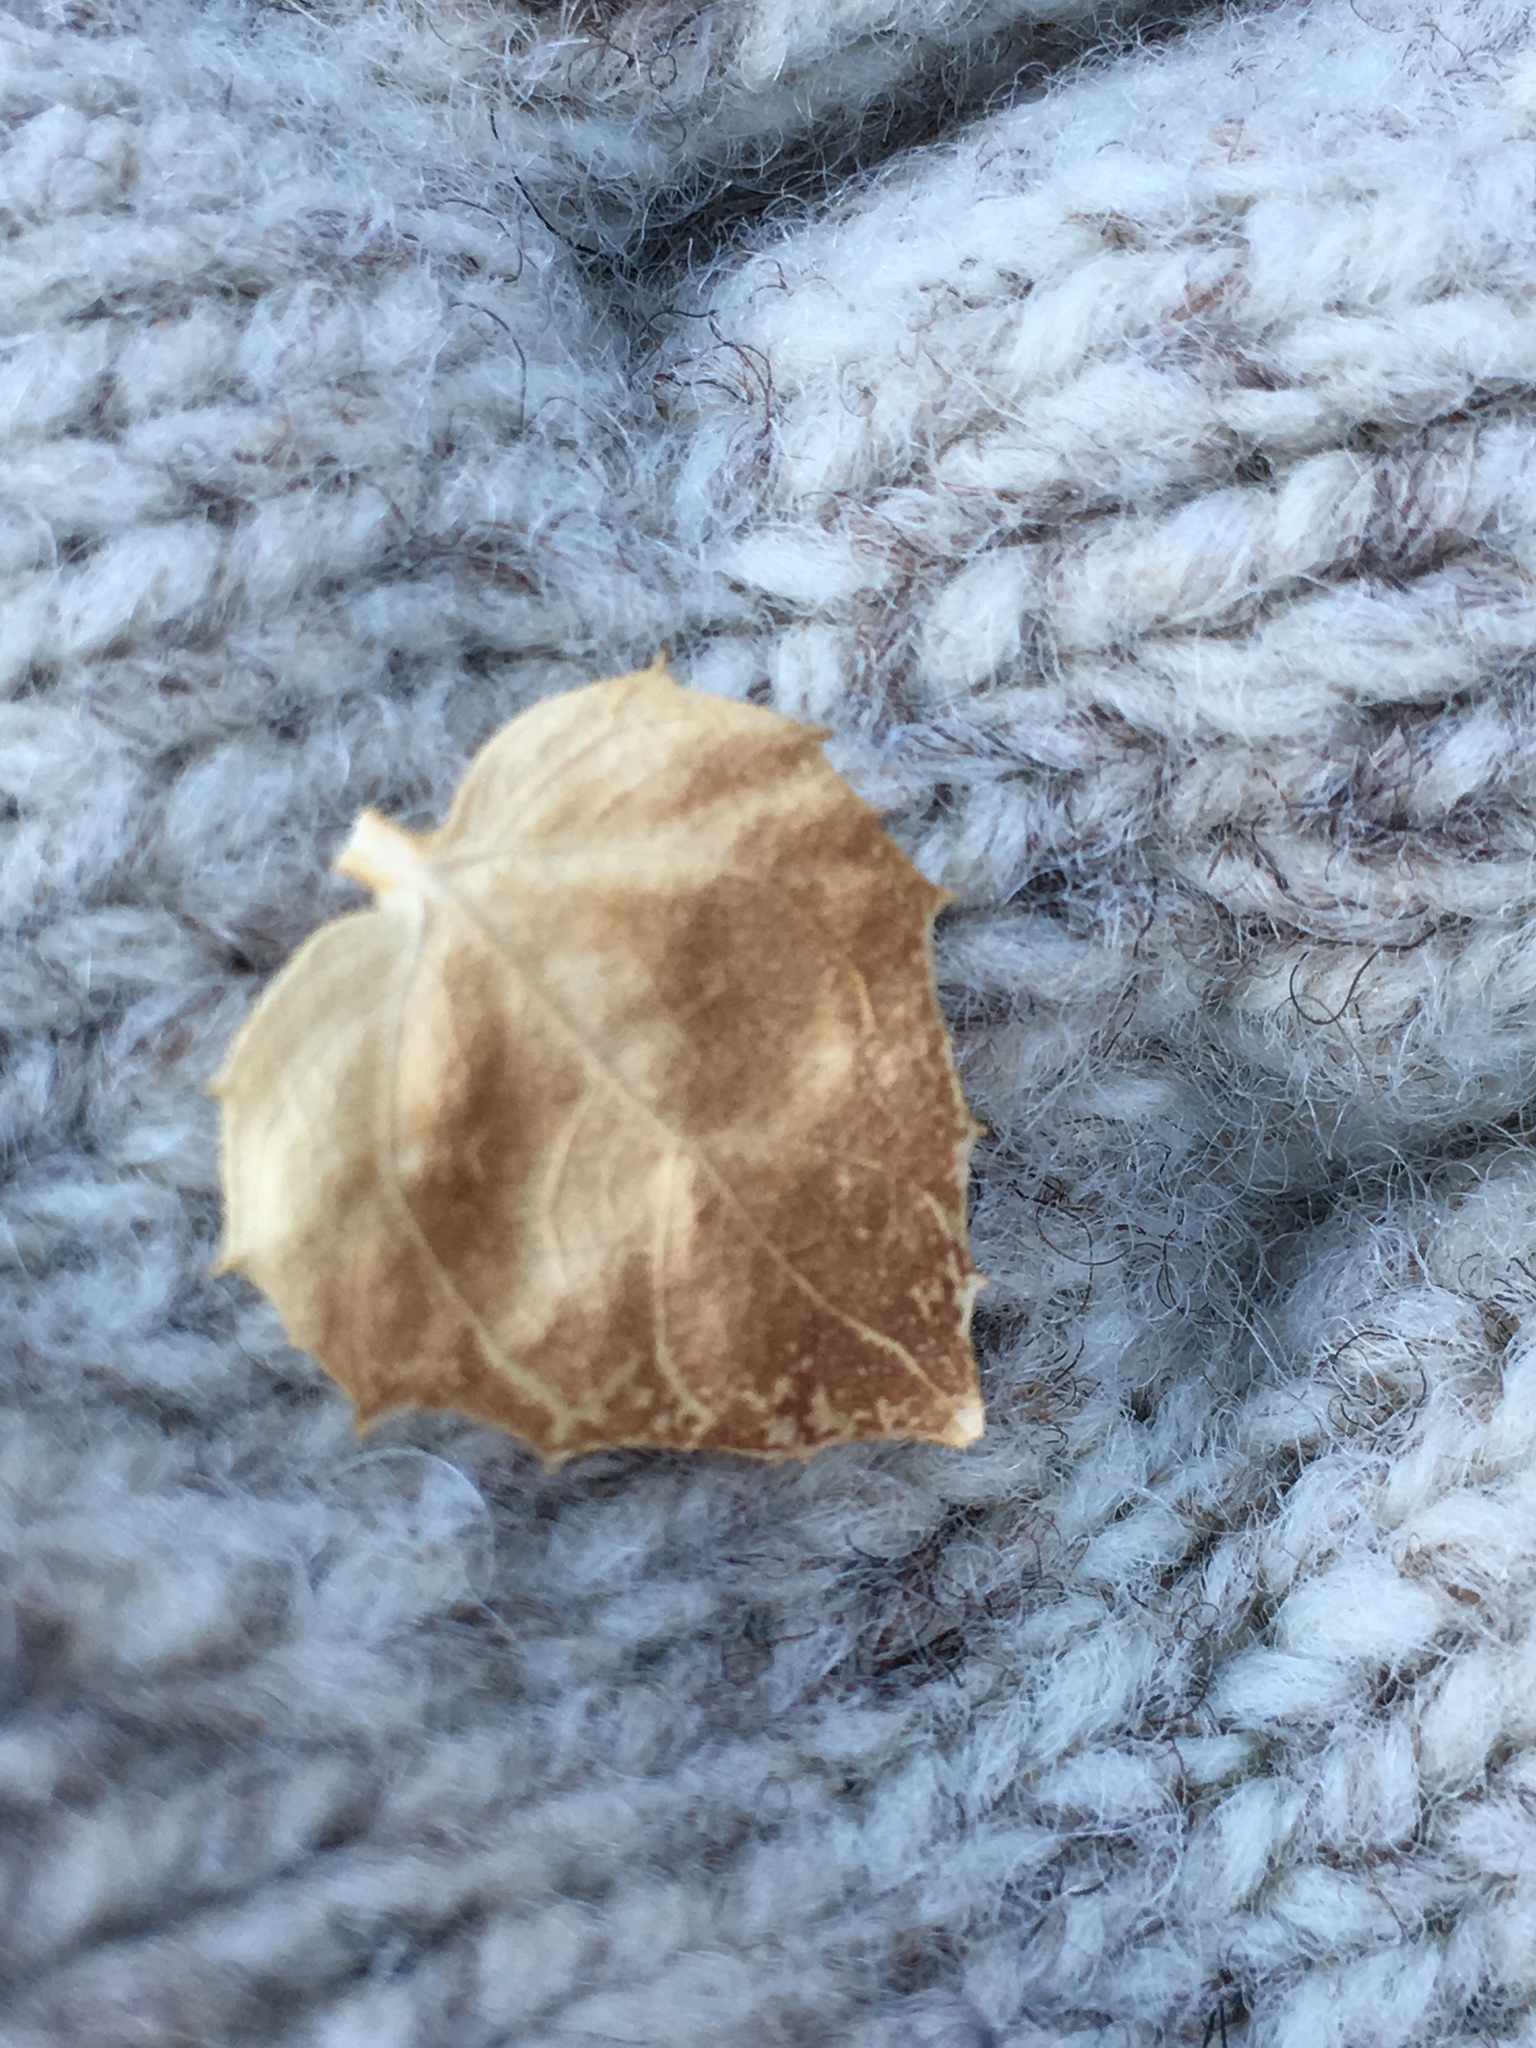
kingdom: Plantae
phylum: Tracheophyta
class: Magnoliopsida
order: Asterales
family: Asteraceae
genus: Brickellia
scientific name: Brickellia atractyloides
